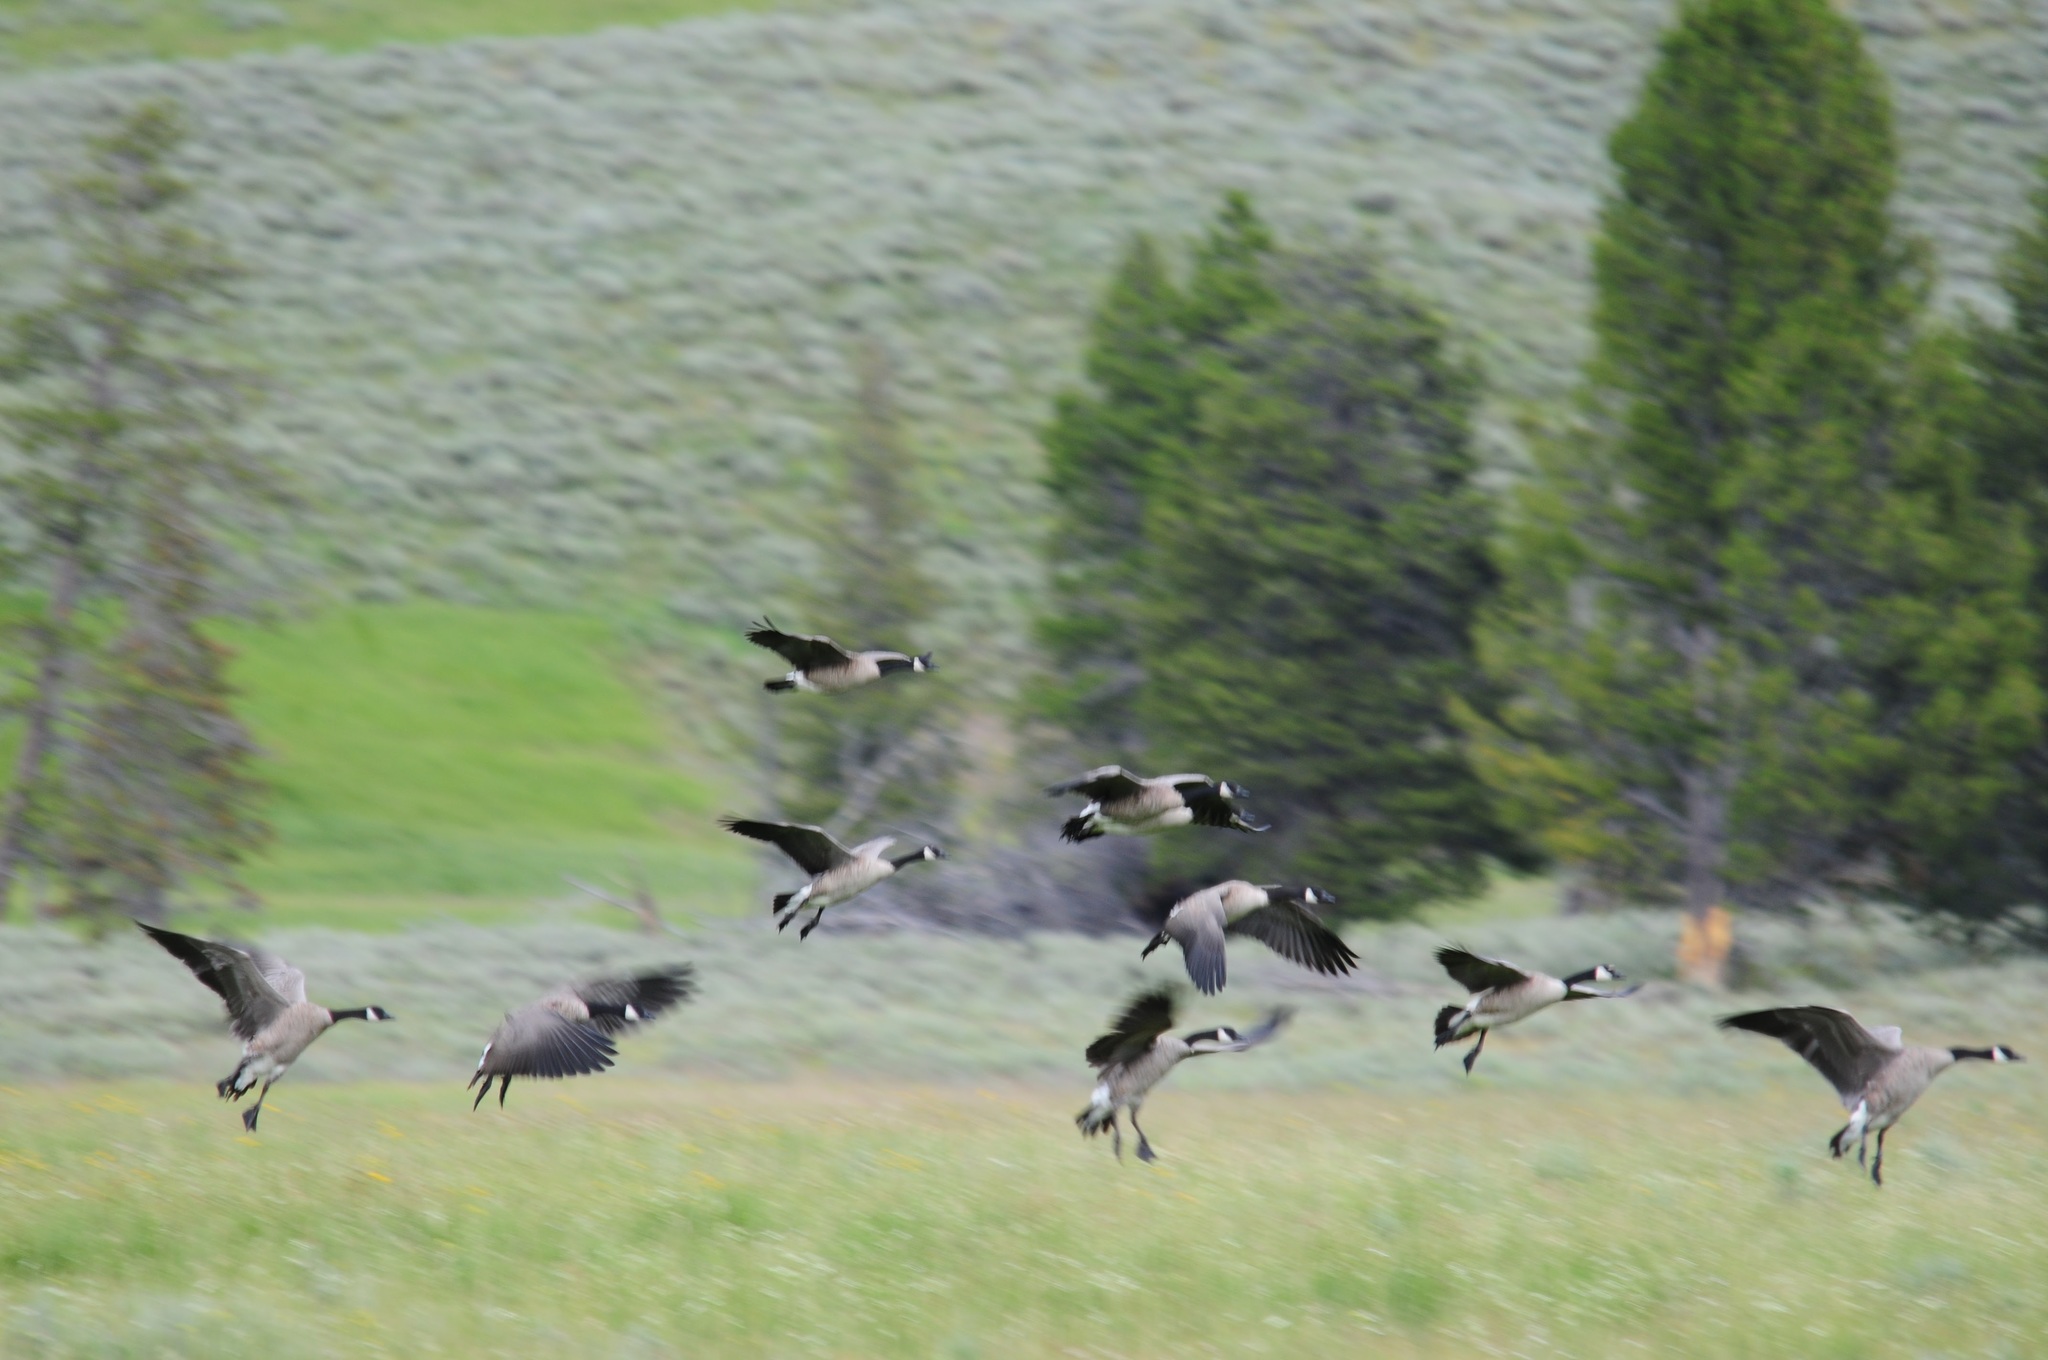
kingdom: Animalia
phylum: Chordata
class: Aves
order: Anseriformes
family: Anatidae
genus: Branta
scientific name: Branta canadensis
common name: Canada goose
